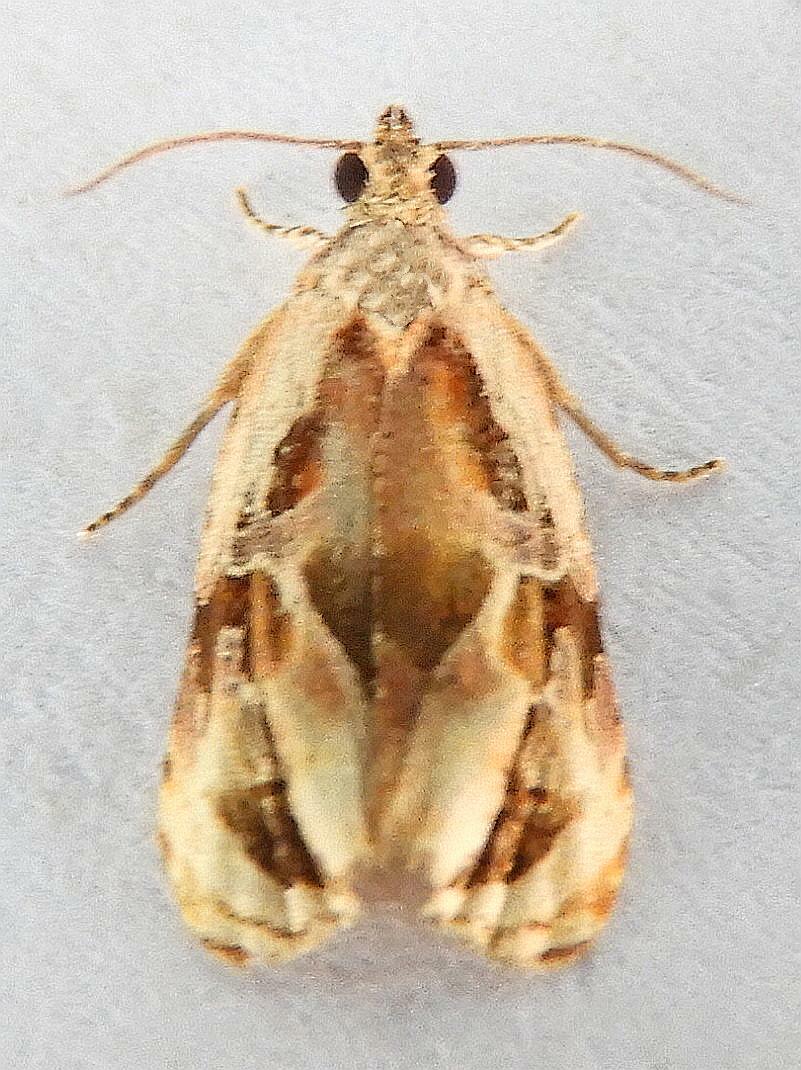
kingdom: Animalia
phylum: Arthropoda
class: Insecta
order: Lepidoptera
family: Tortricidae
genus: Zomaria
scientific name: Zomaria interruptolineana
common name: Broken-lined zomaria moth
